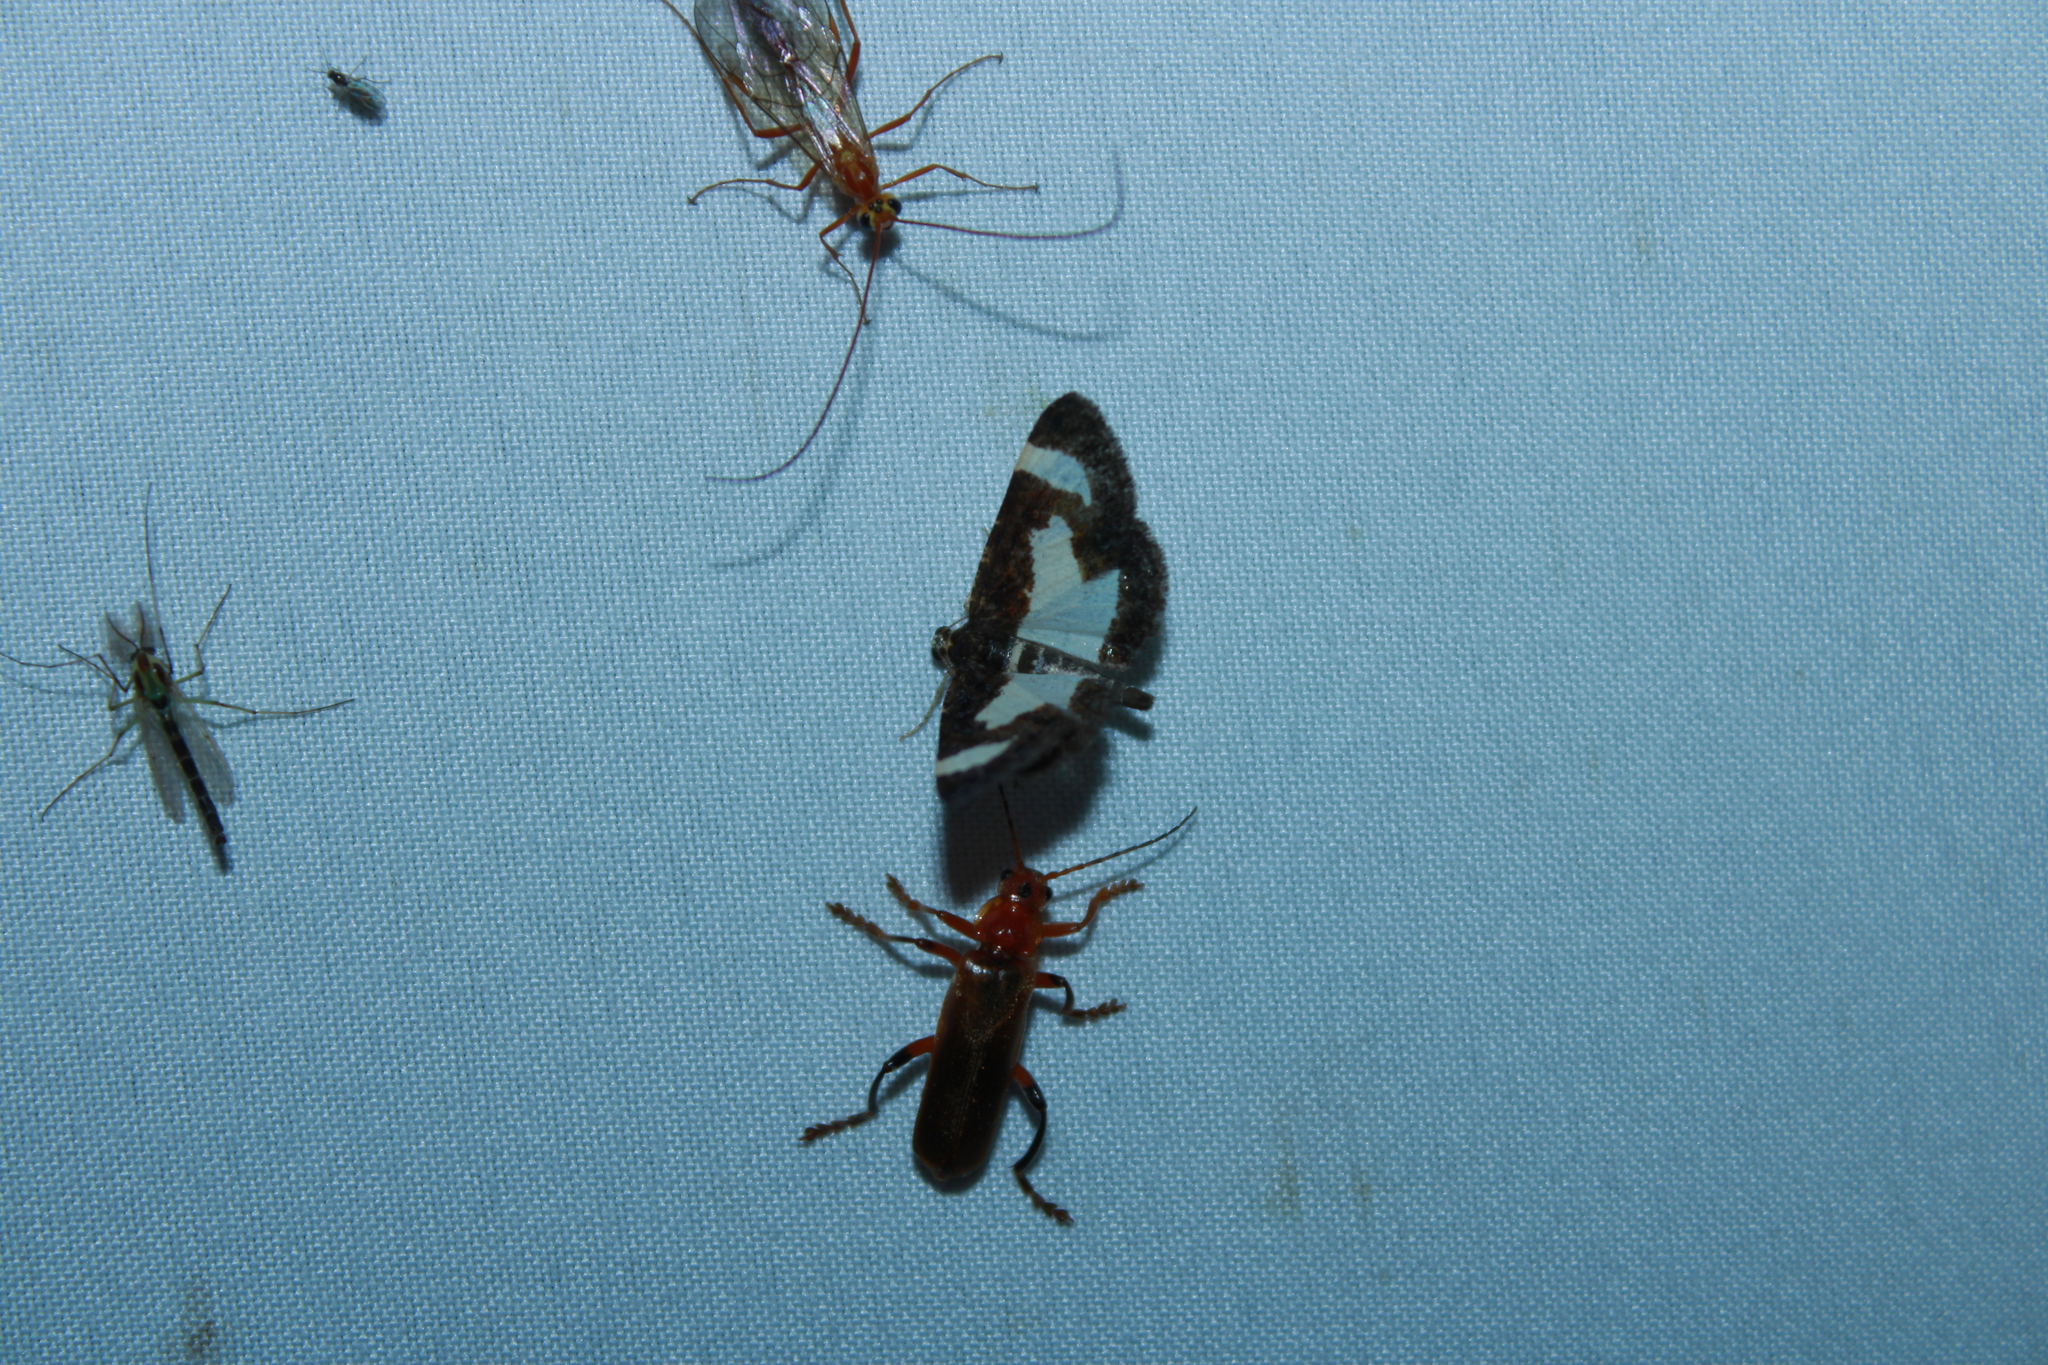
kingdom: Animalia
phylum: Arthropoda
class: Insecta
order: Lepidoptera
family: Geometridae
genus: Heliomata
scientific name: Heliomata cycladata
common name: Common spring moth
